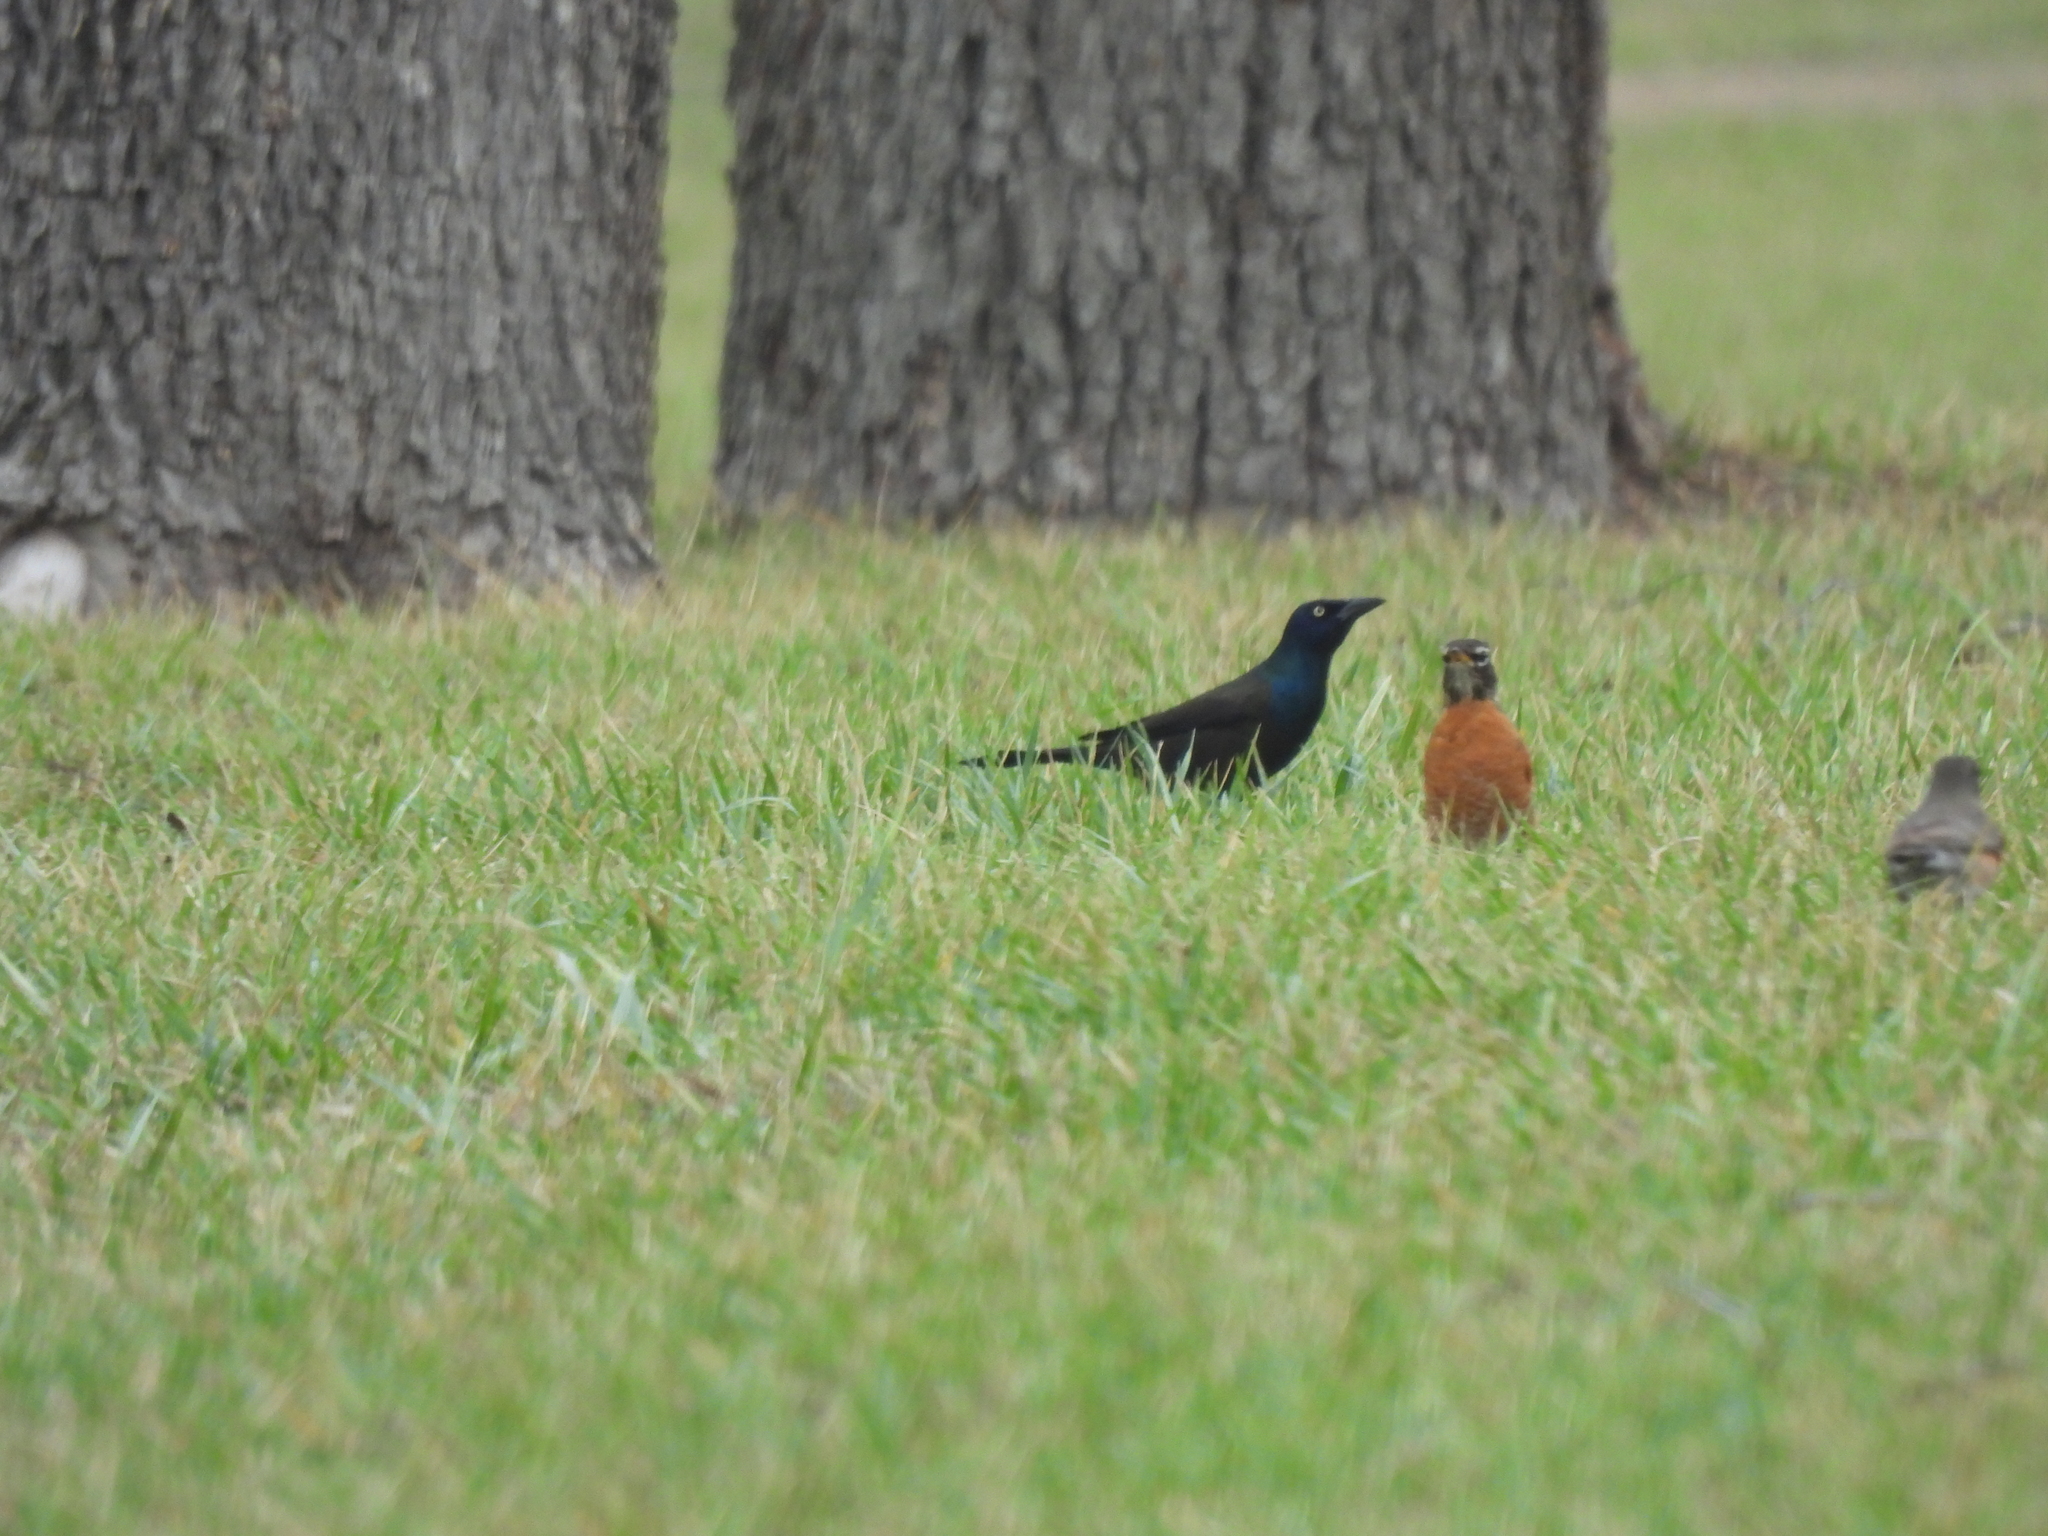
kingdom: Animalia
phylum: Chordata
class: Aves
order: Passeriformes
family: Icteridae
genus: Quiscalus
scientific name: Quiscalus quiscula
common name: Common grackle
